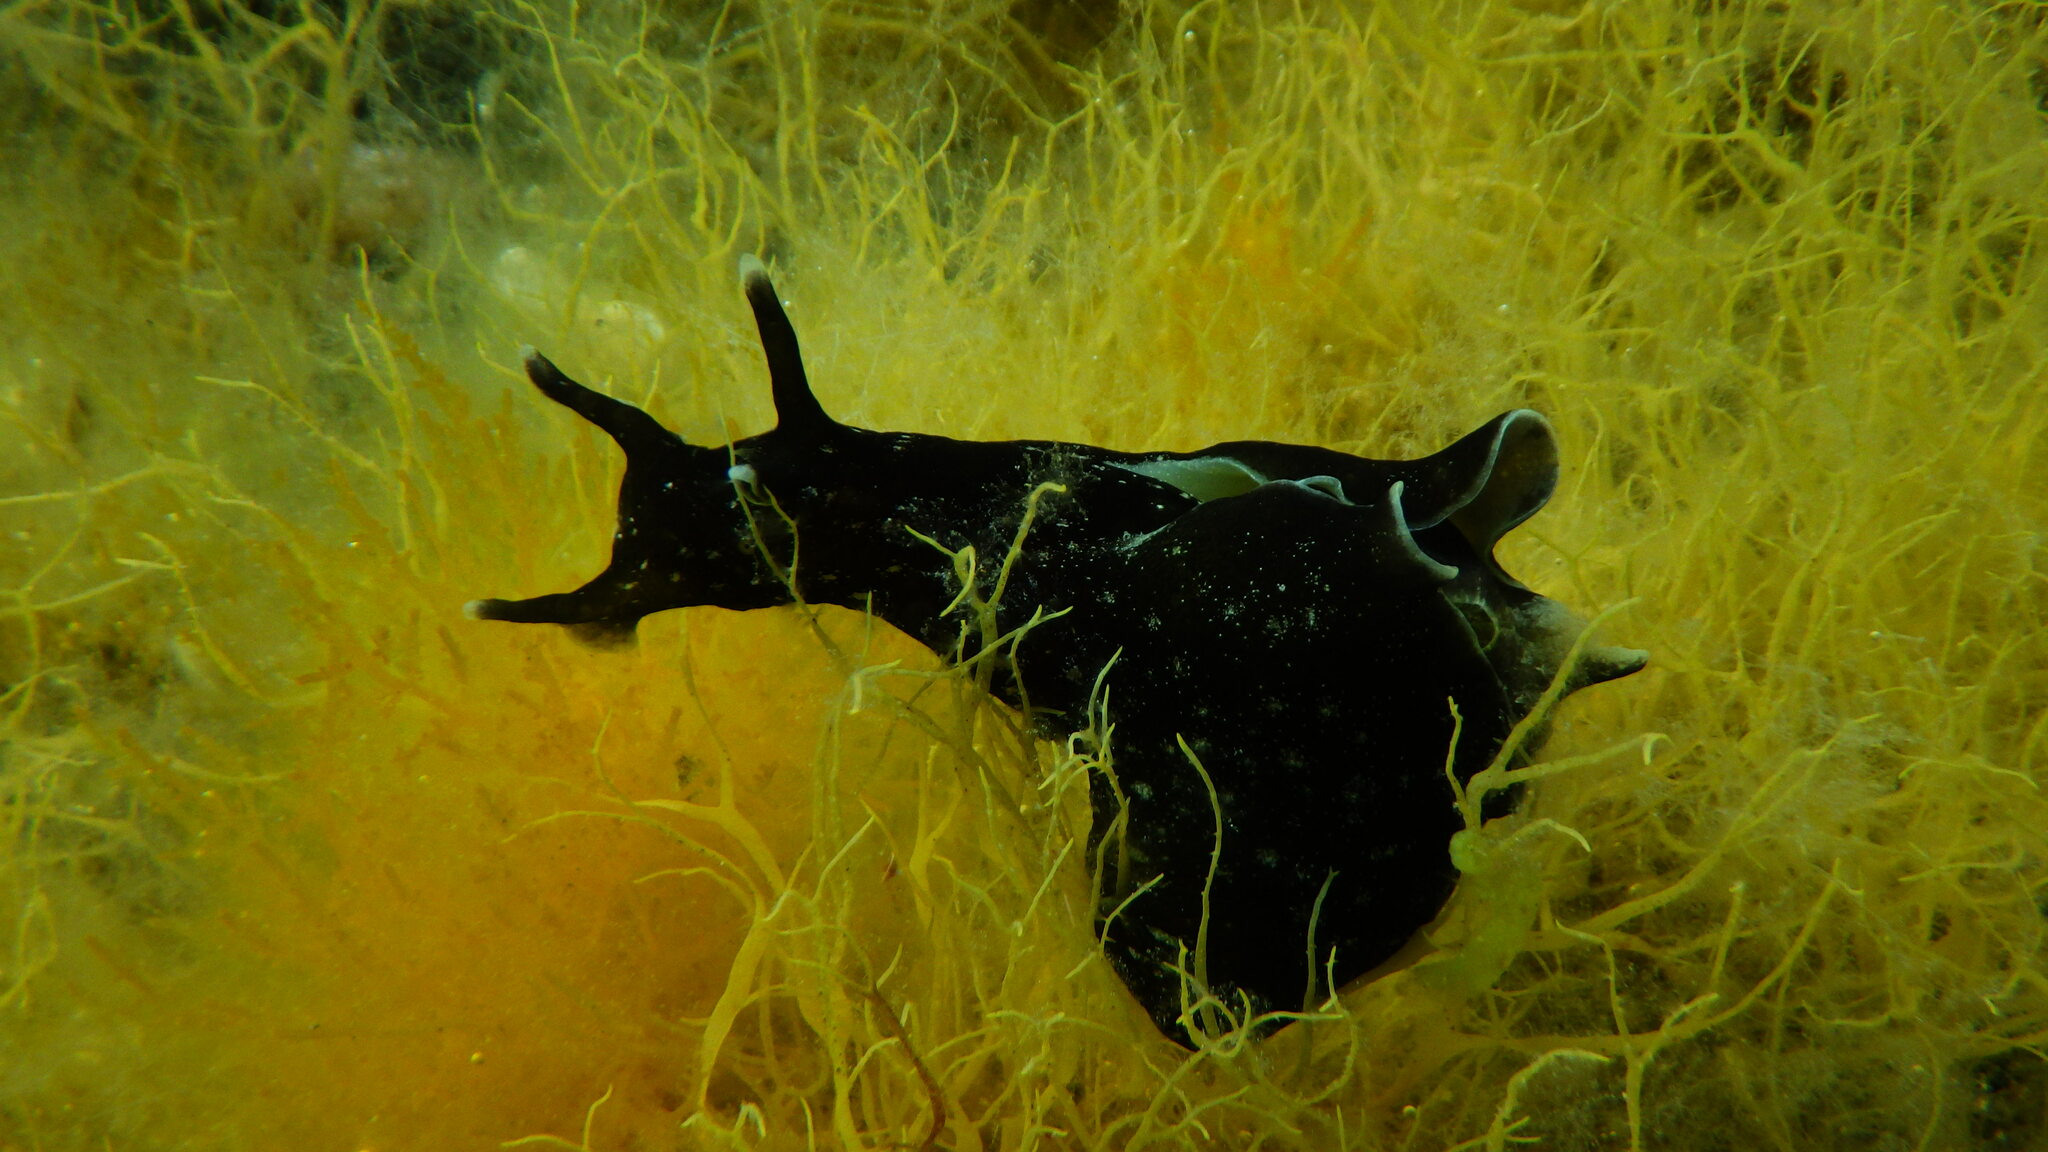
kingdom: Animalia
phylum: Mollusca
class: Gastropoda
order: Aplysiida
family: Aplysiidae
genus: Aplysia
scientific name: Aplysia punctata
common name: Common sea hare
